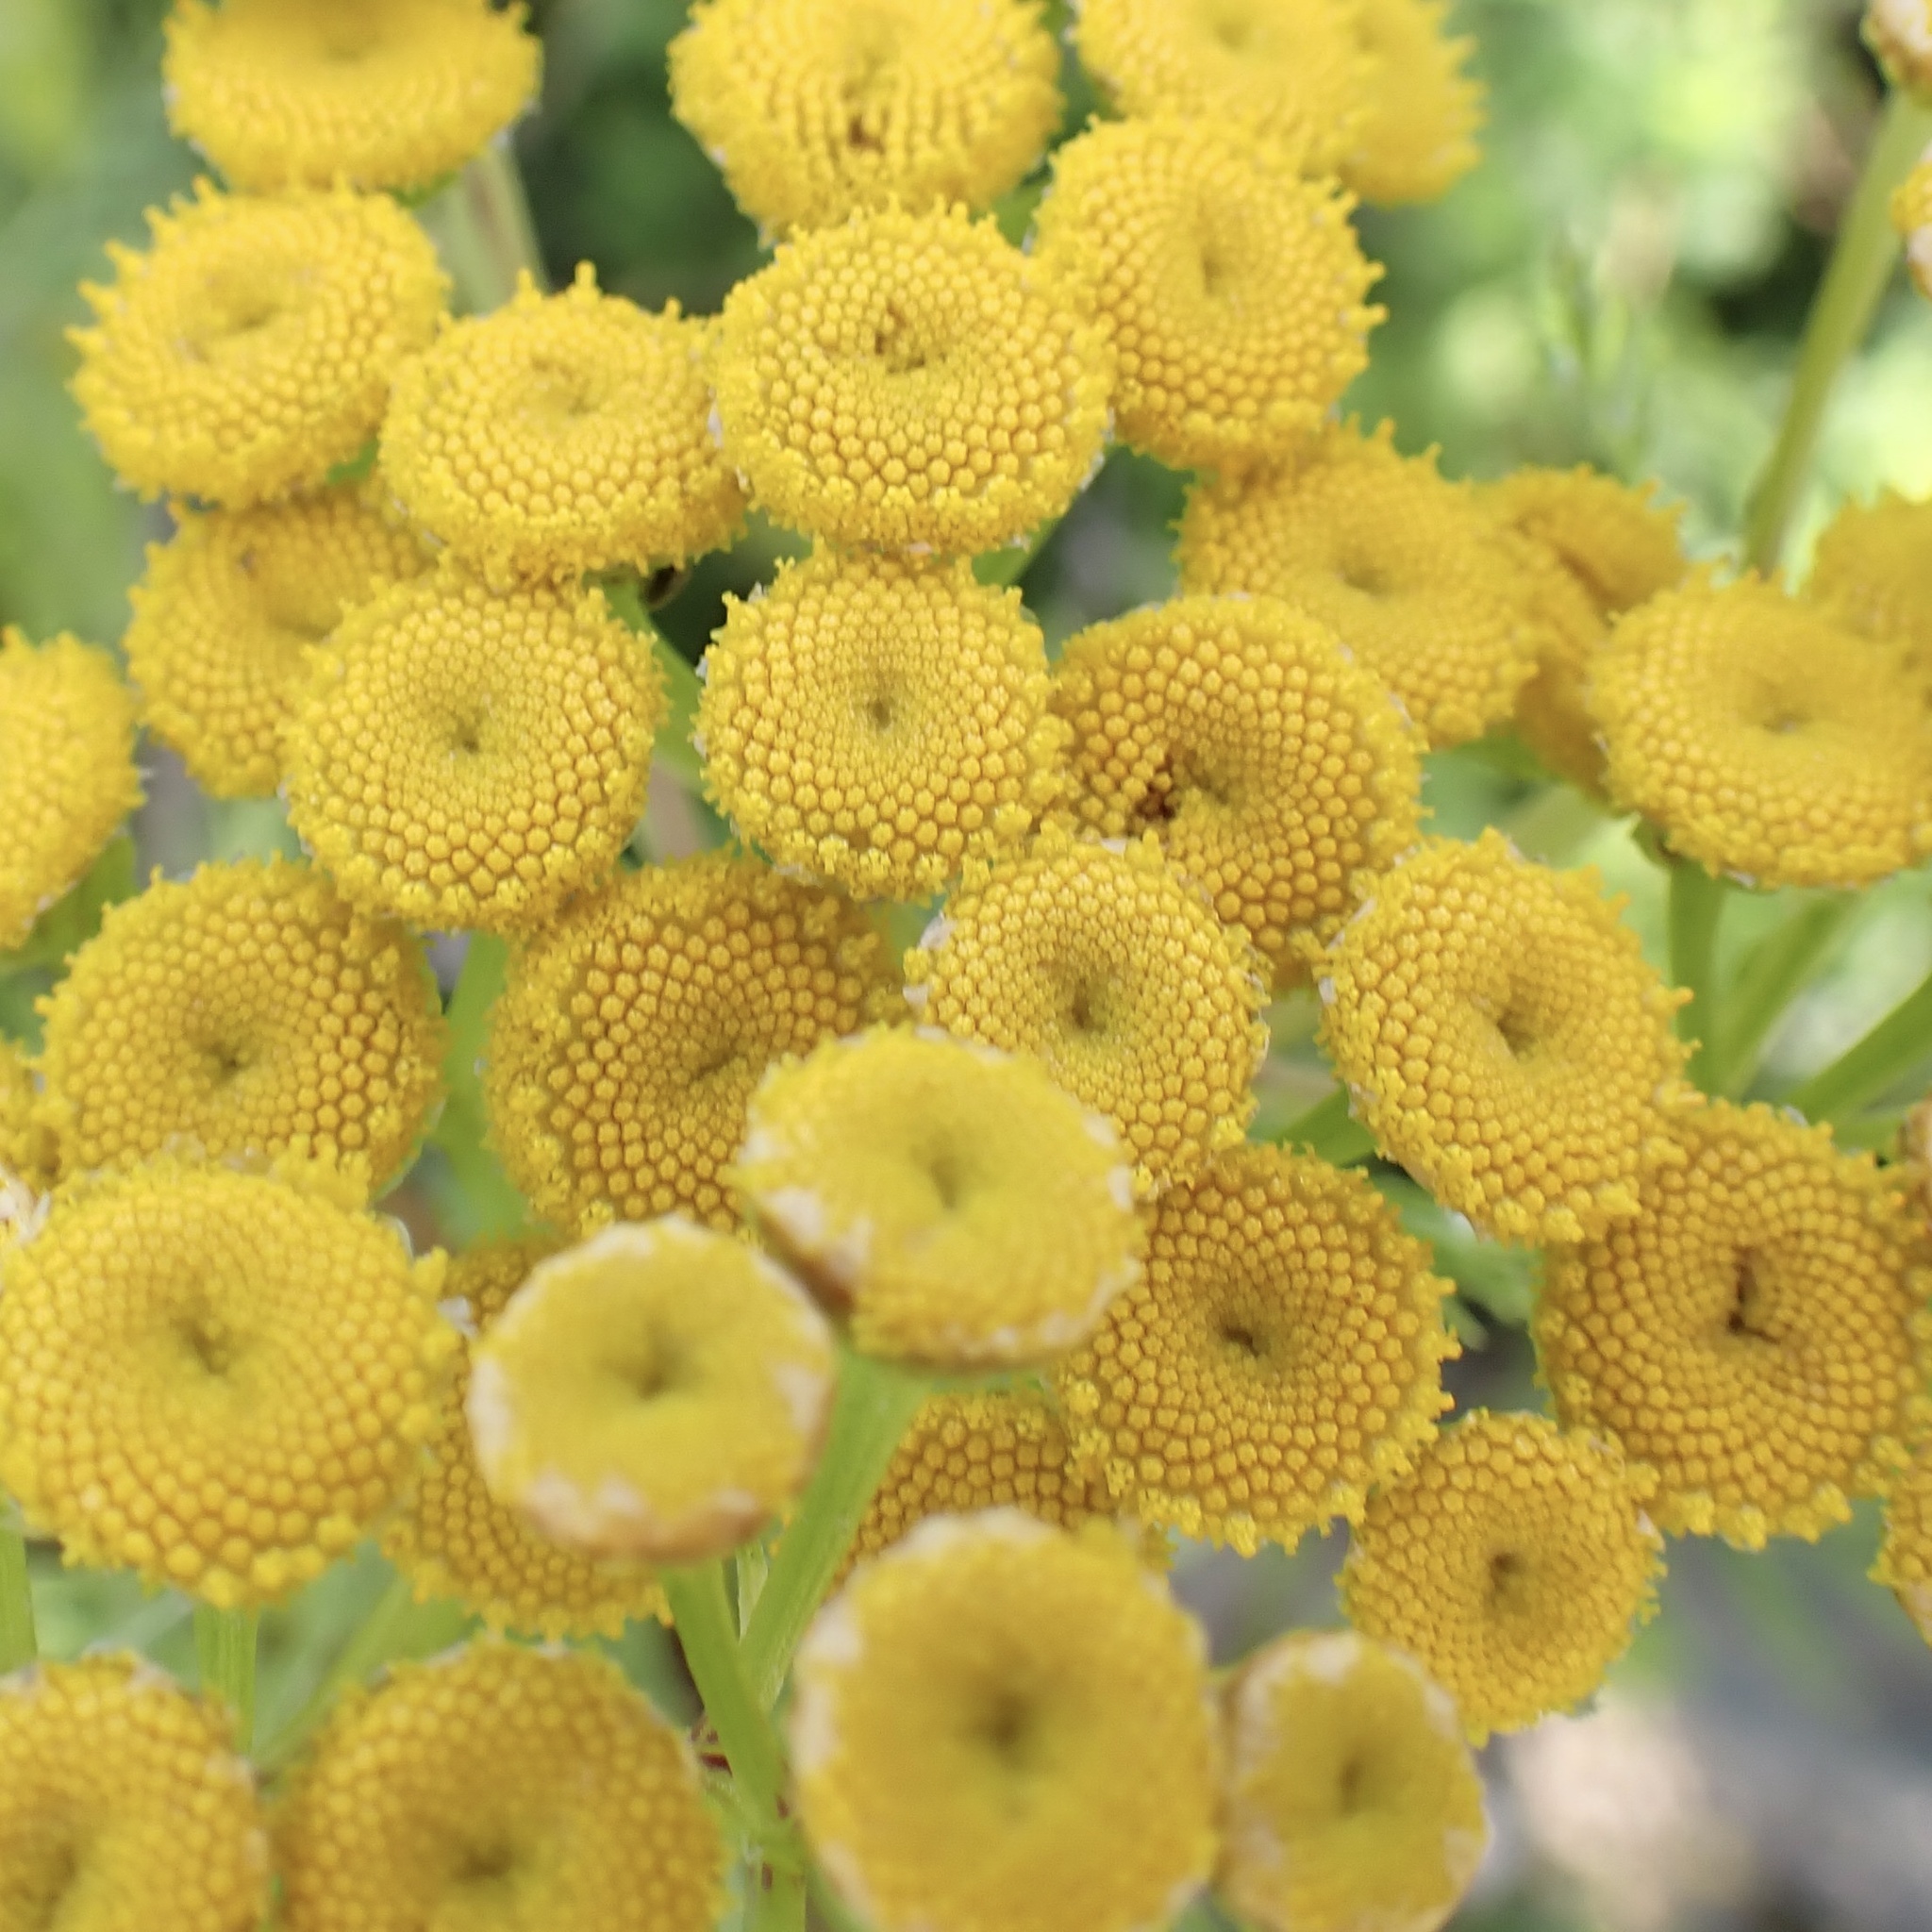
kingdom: Plantae
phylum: Tracheophyta
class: Magnoliopsida
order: Asterales
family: Asteraceae
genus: Tanacetum
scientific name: Tanacetum vulgare
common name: Common tansy
